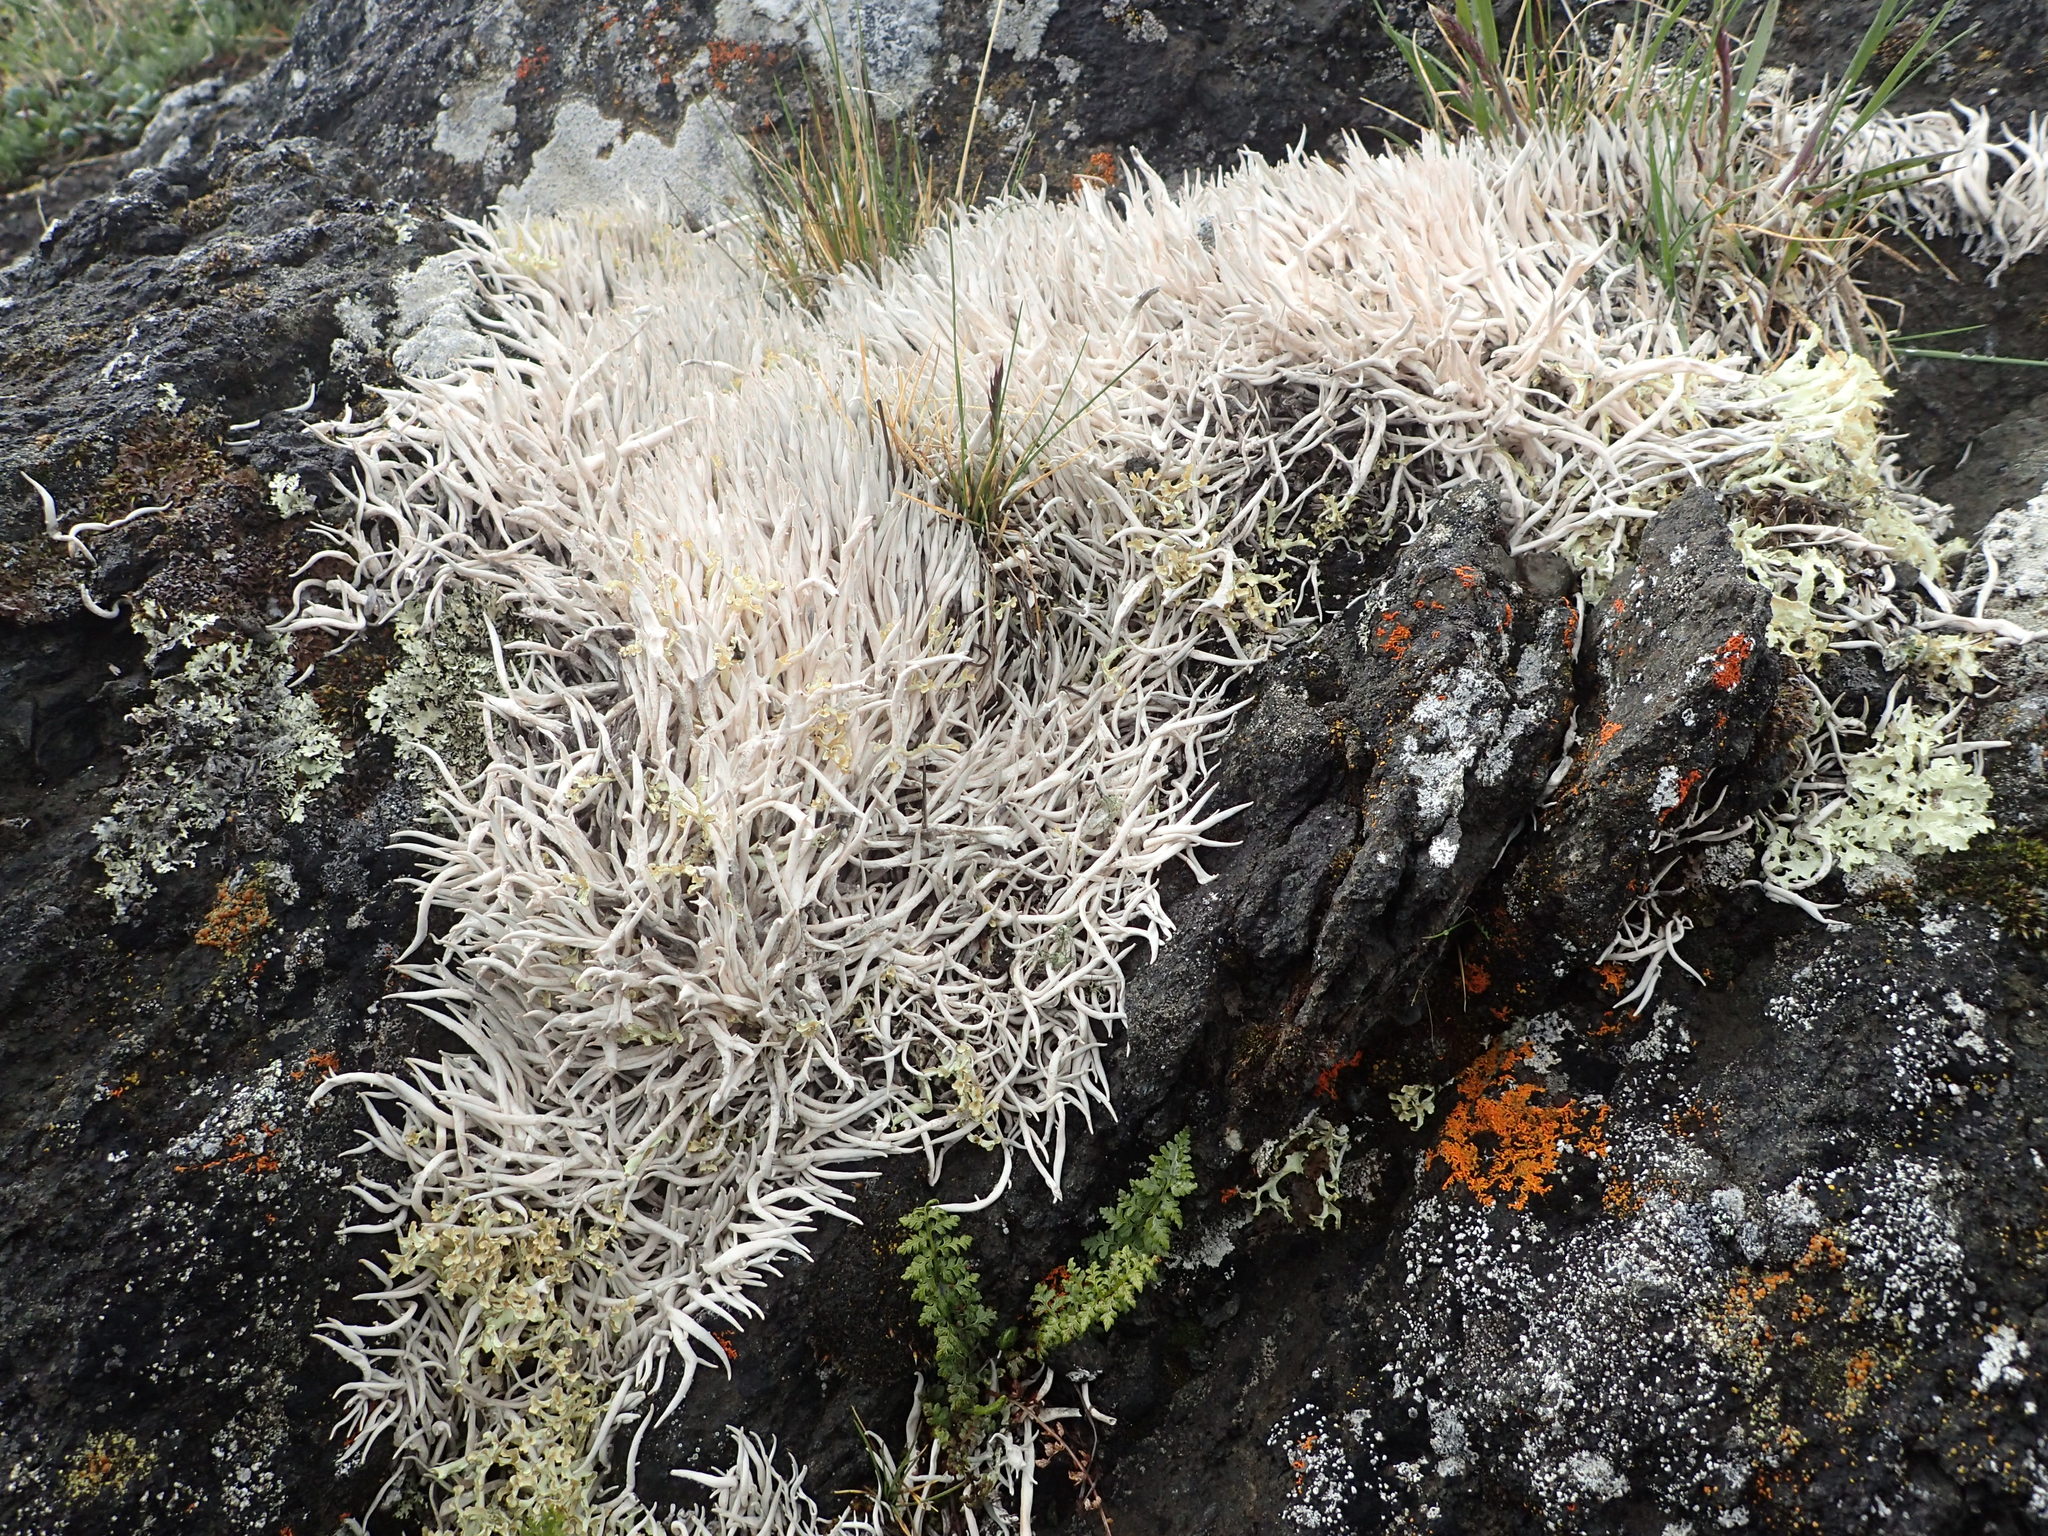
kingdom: Fungi
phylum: Ascomycota
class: Lecanoromycetes
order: Pertusariales
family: Icmadophilaceae
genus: Thamnolia
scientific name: Thamnolia vermicularis
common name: Whiteworm lichen
